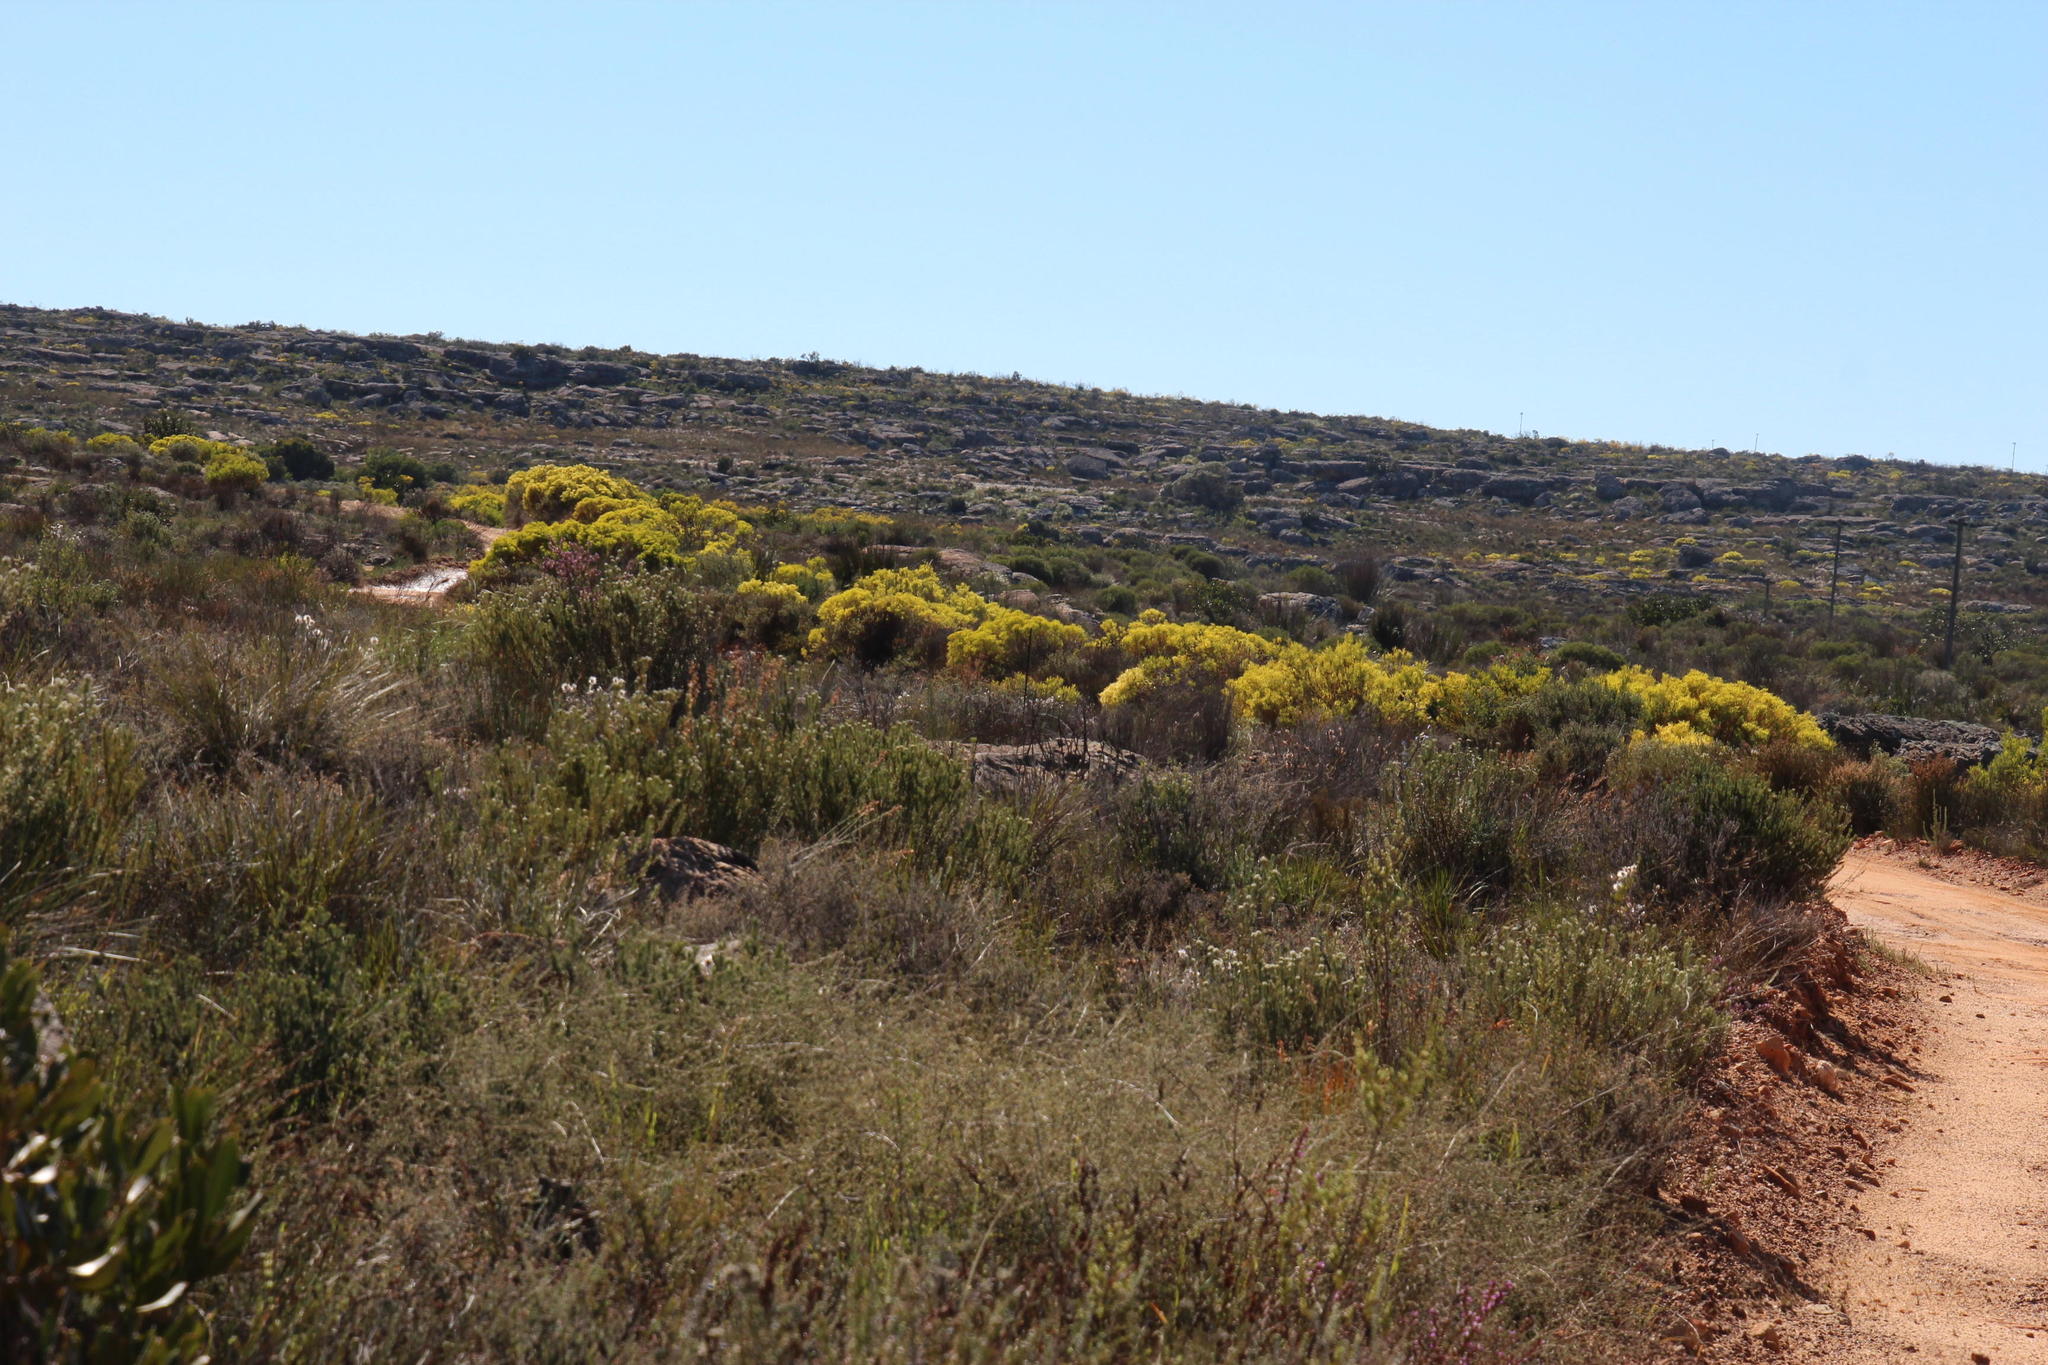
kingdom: Plantae
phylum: Tracheophyta
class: Magnoliopsida
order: Proteales
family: Proteaceae
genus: Leucadendron
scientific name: Leucadendron salignum
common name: Common sunshine conebush
